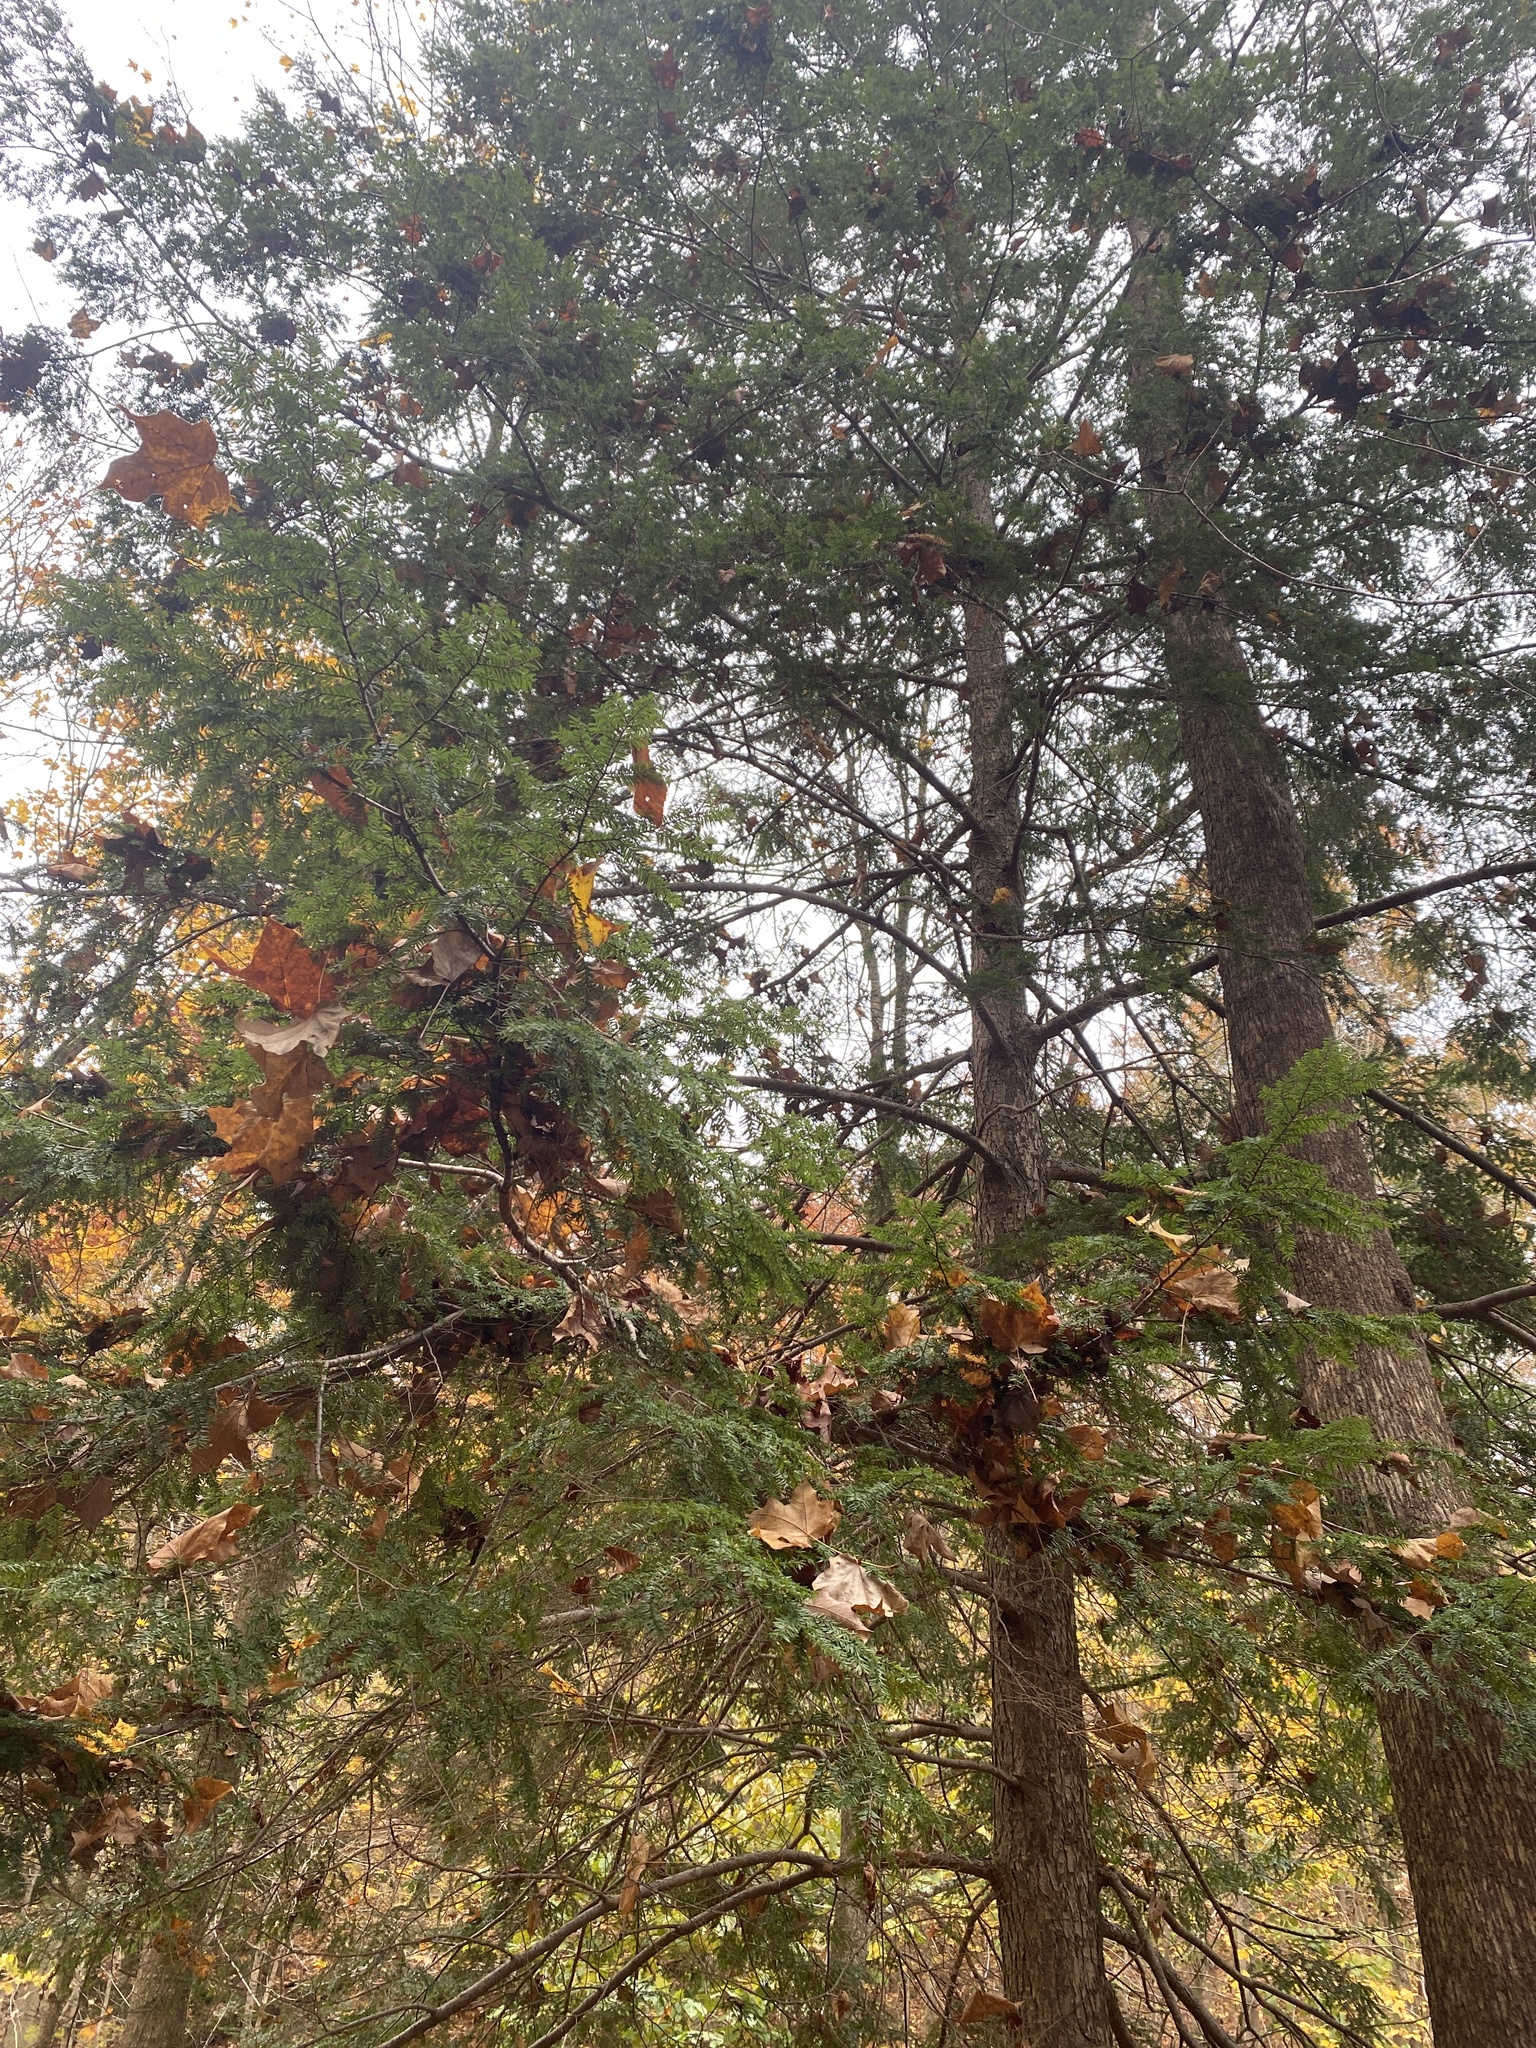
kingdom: Plantae
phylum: Tracheophyta
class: Pinopsida
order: Pinales
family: Pinaceae
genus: Tsuga
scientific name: Tsuga canadensis
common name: Eastern hemlock
